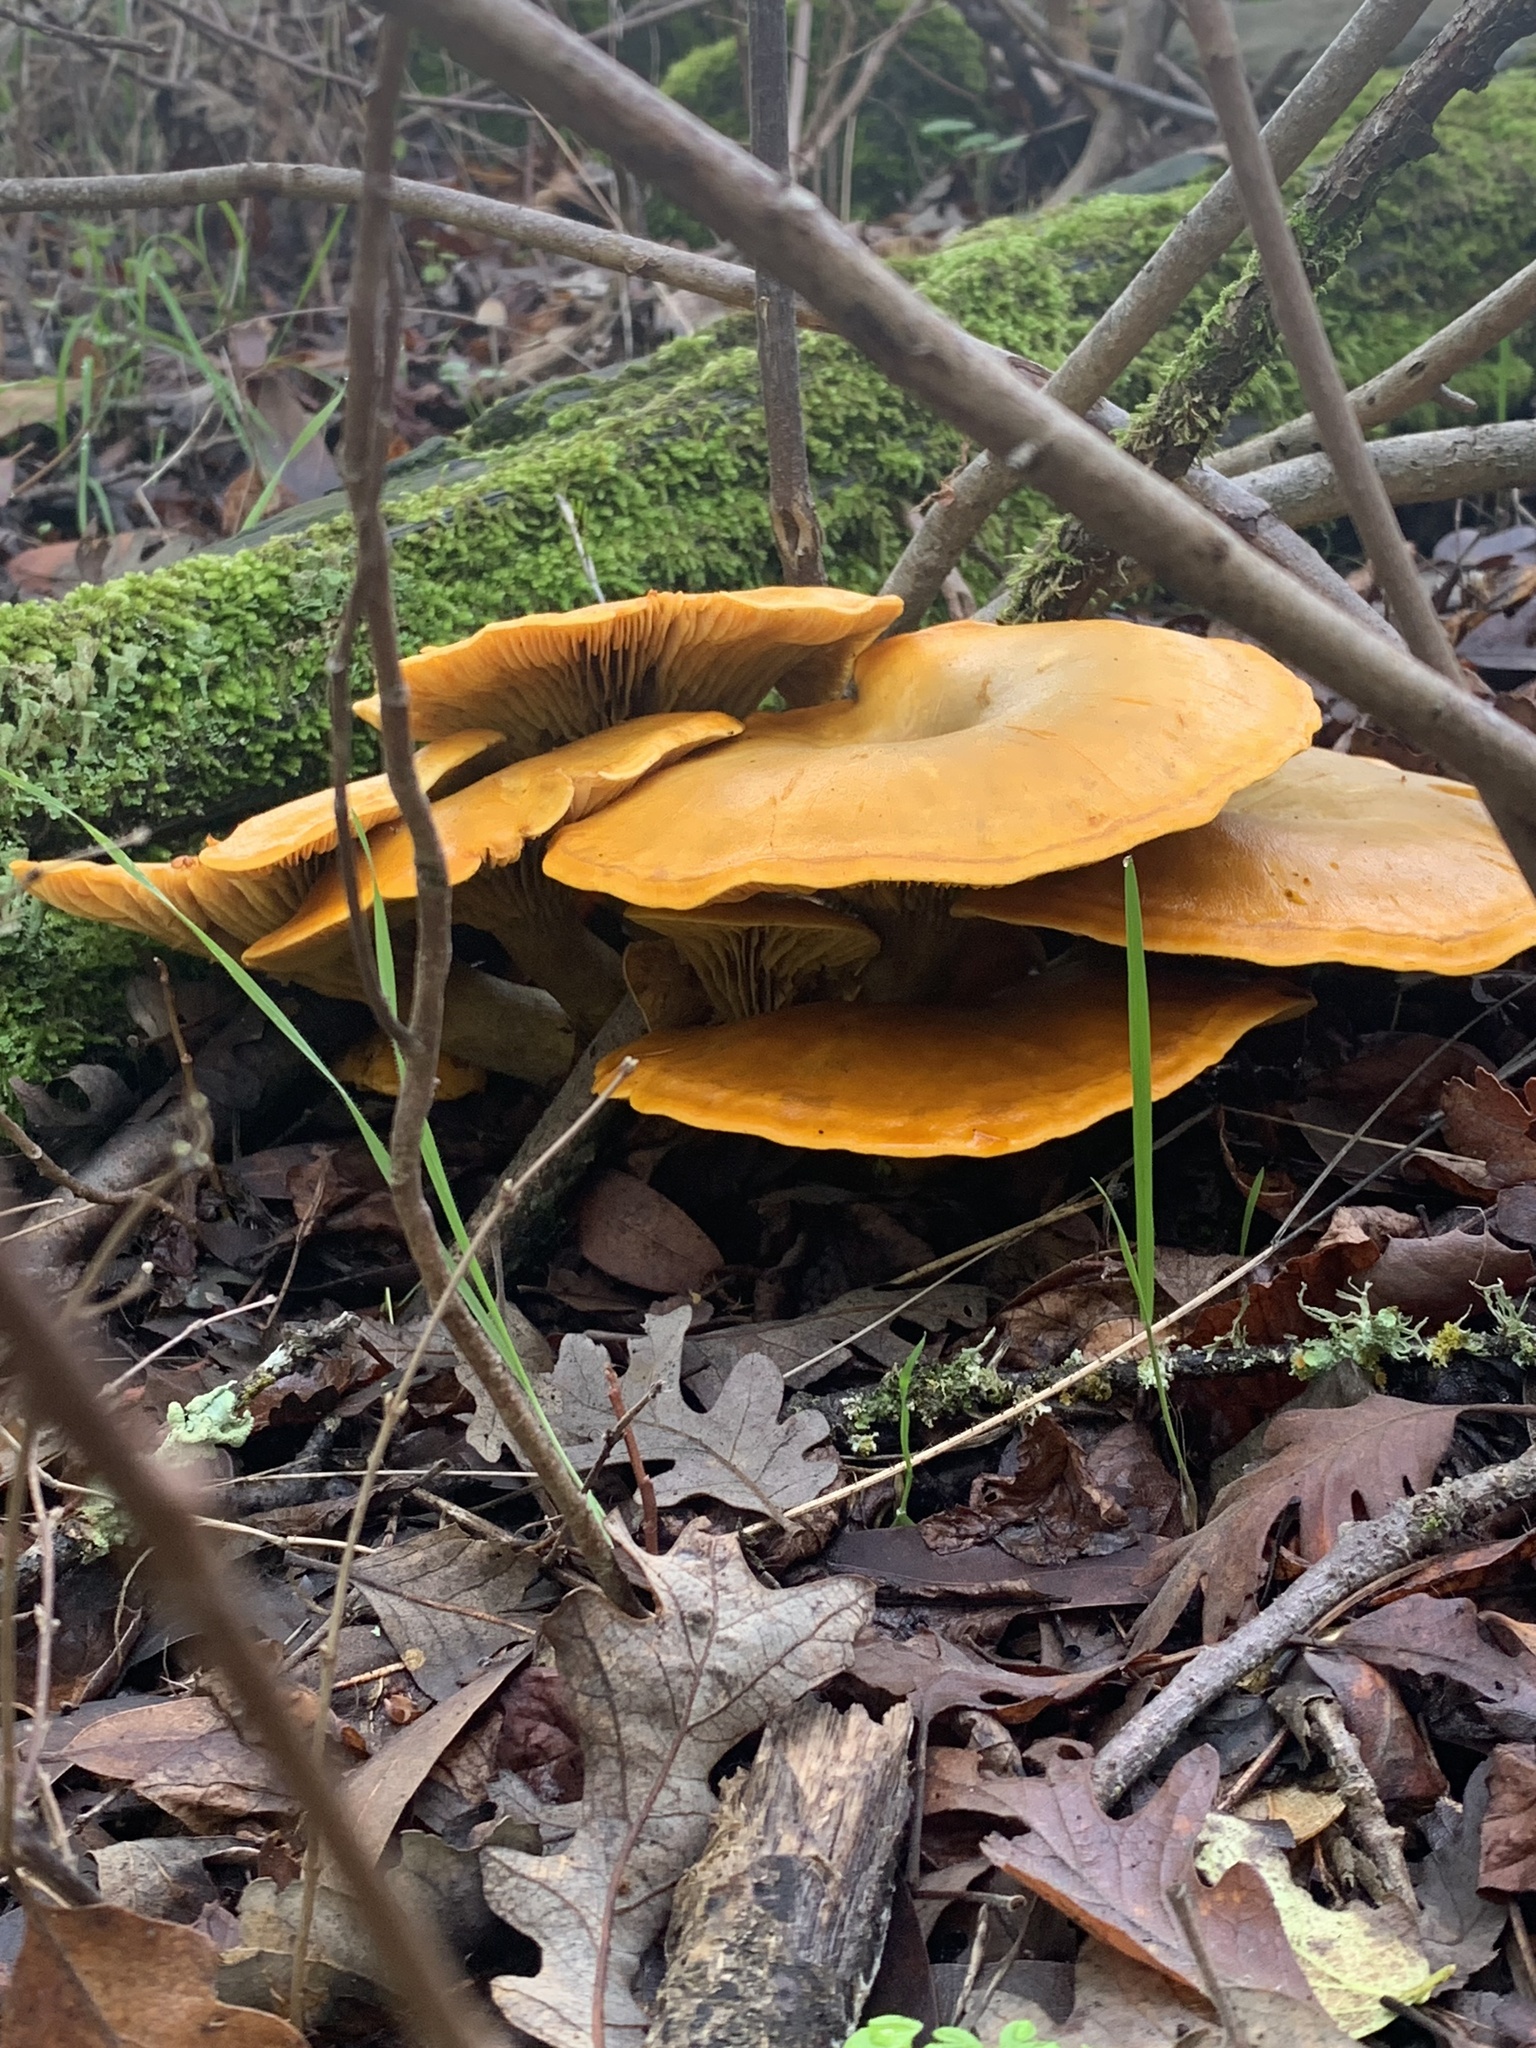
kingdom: Fungi
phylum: Basidiomycota
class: Agaricomycetes
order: Agaricales
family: Omphalotaceae
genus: Omphalotus
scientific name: Omphalotus olivascens
